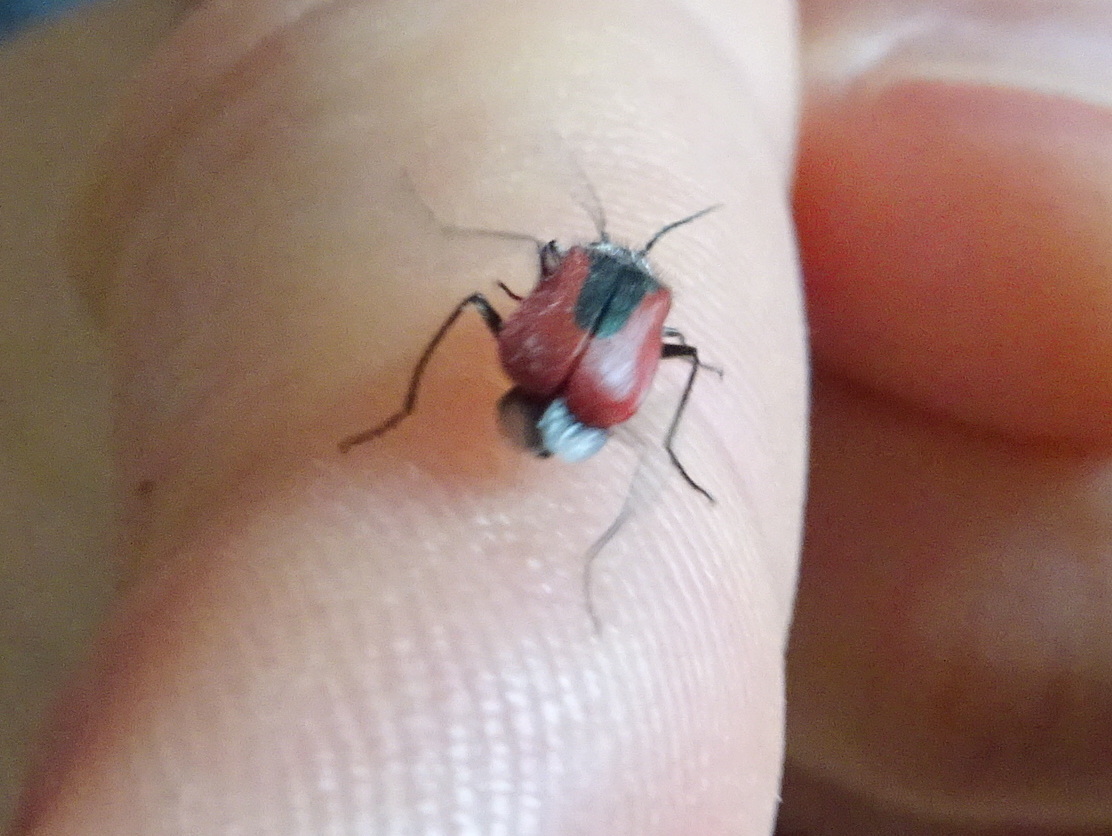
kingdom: Animalia
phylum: Arthropoda
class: Insecta
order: Coleoptera
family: Melyridae
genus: Malachius
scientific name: Malachius aeneus
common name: Scarlet malachite beetle
